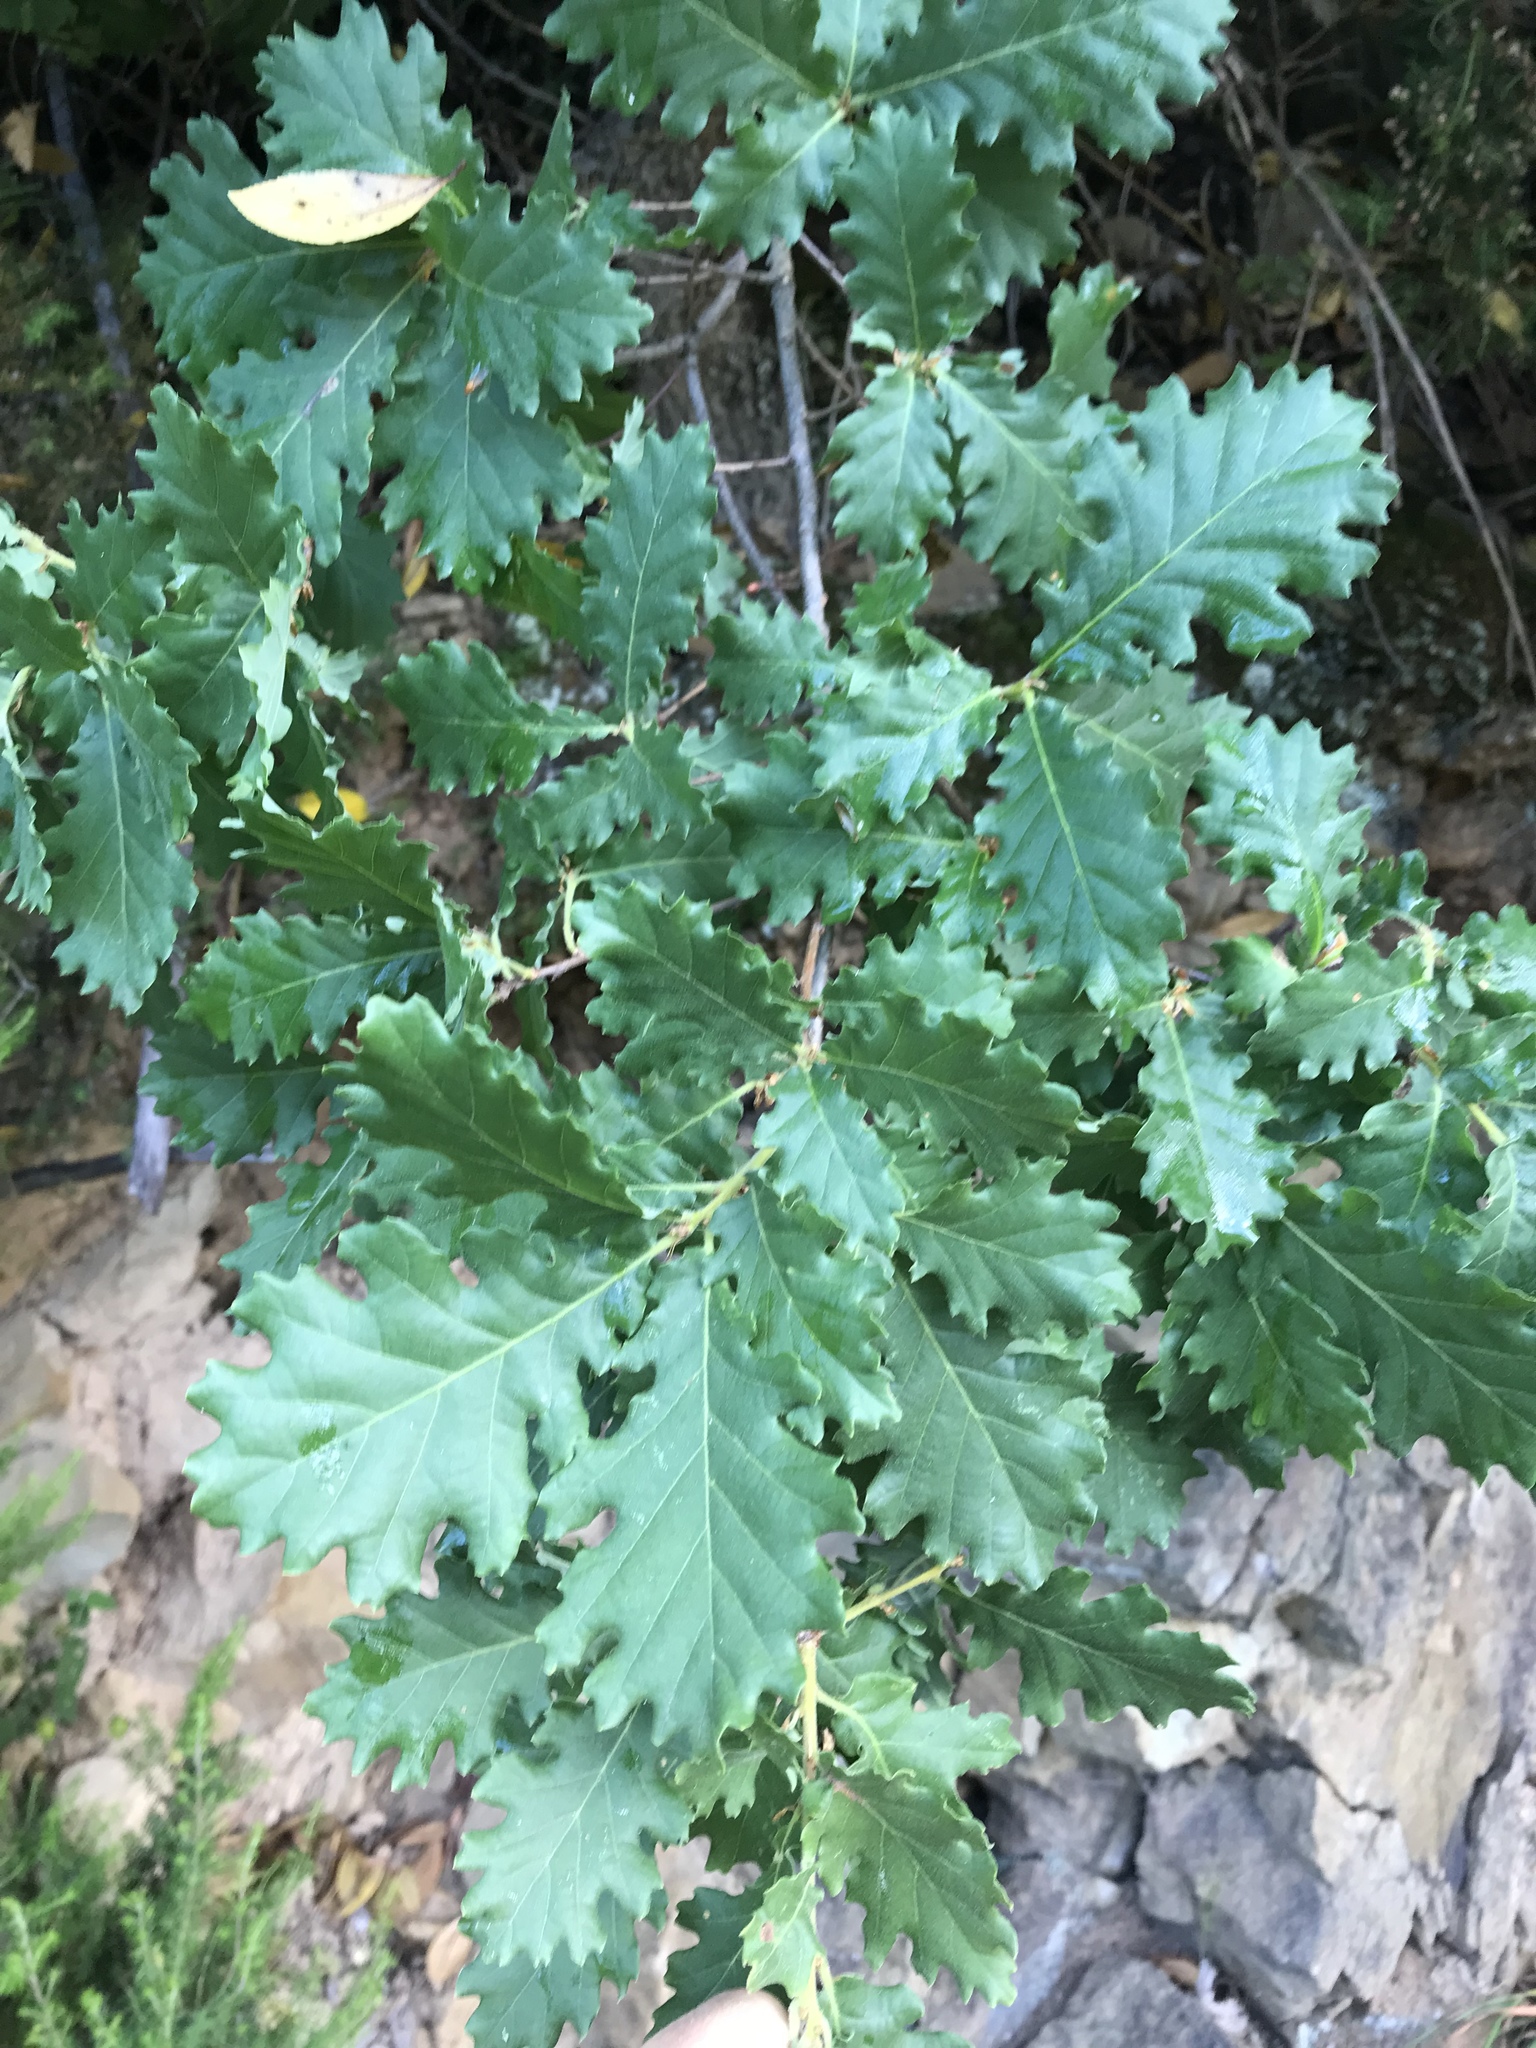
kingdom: Plantae
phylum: Tracheophyta
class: Magnoliopsida
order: Fagales
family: Fagaceae
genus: Quercus
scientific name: Quercus robur
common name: Pedunculate oak
